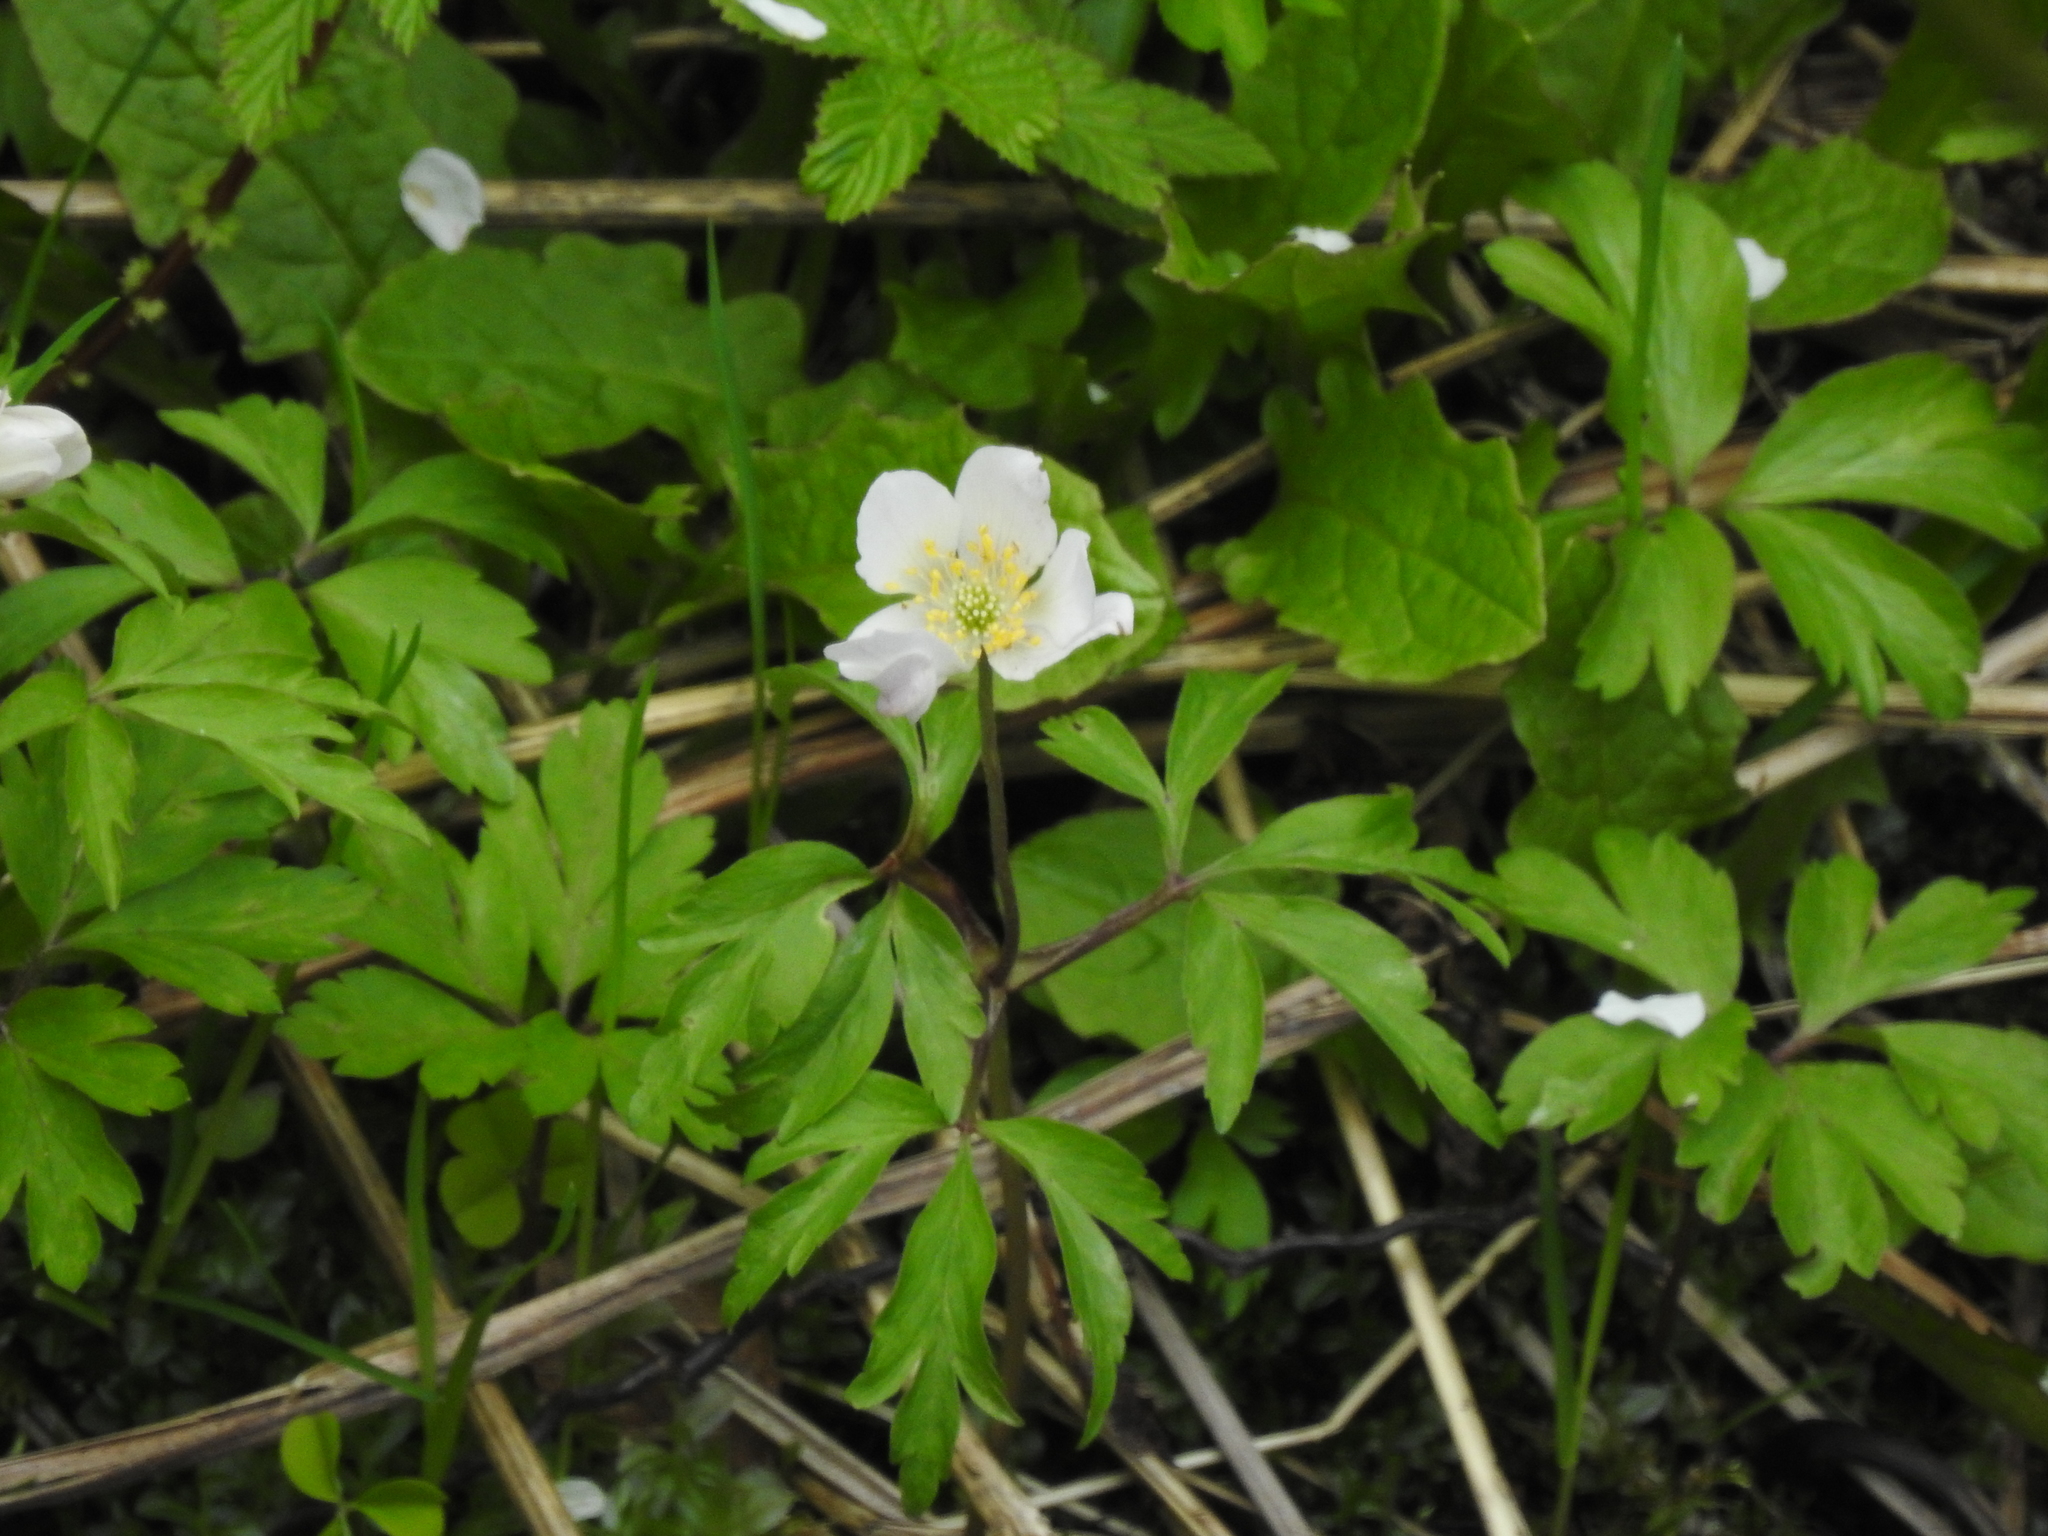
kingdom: Plantae
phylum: Tracheophyta
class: Magnoliopsida
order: Ranunculales
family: Ranunculaceae
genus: Anemone
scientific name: Anemone nemorosa
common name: Wood anemone
